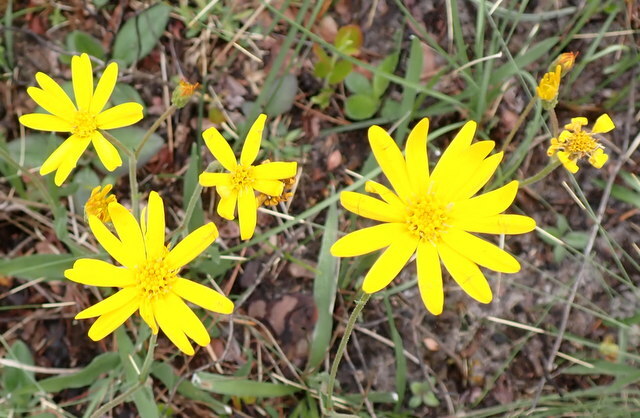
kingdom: Plantae
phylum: Tracheophyta
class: Magnoliopsida
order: Asterales
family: Asteraceae
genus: Pityopsis
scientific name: Pityopsis oligantha
